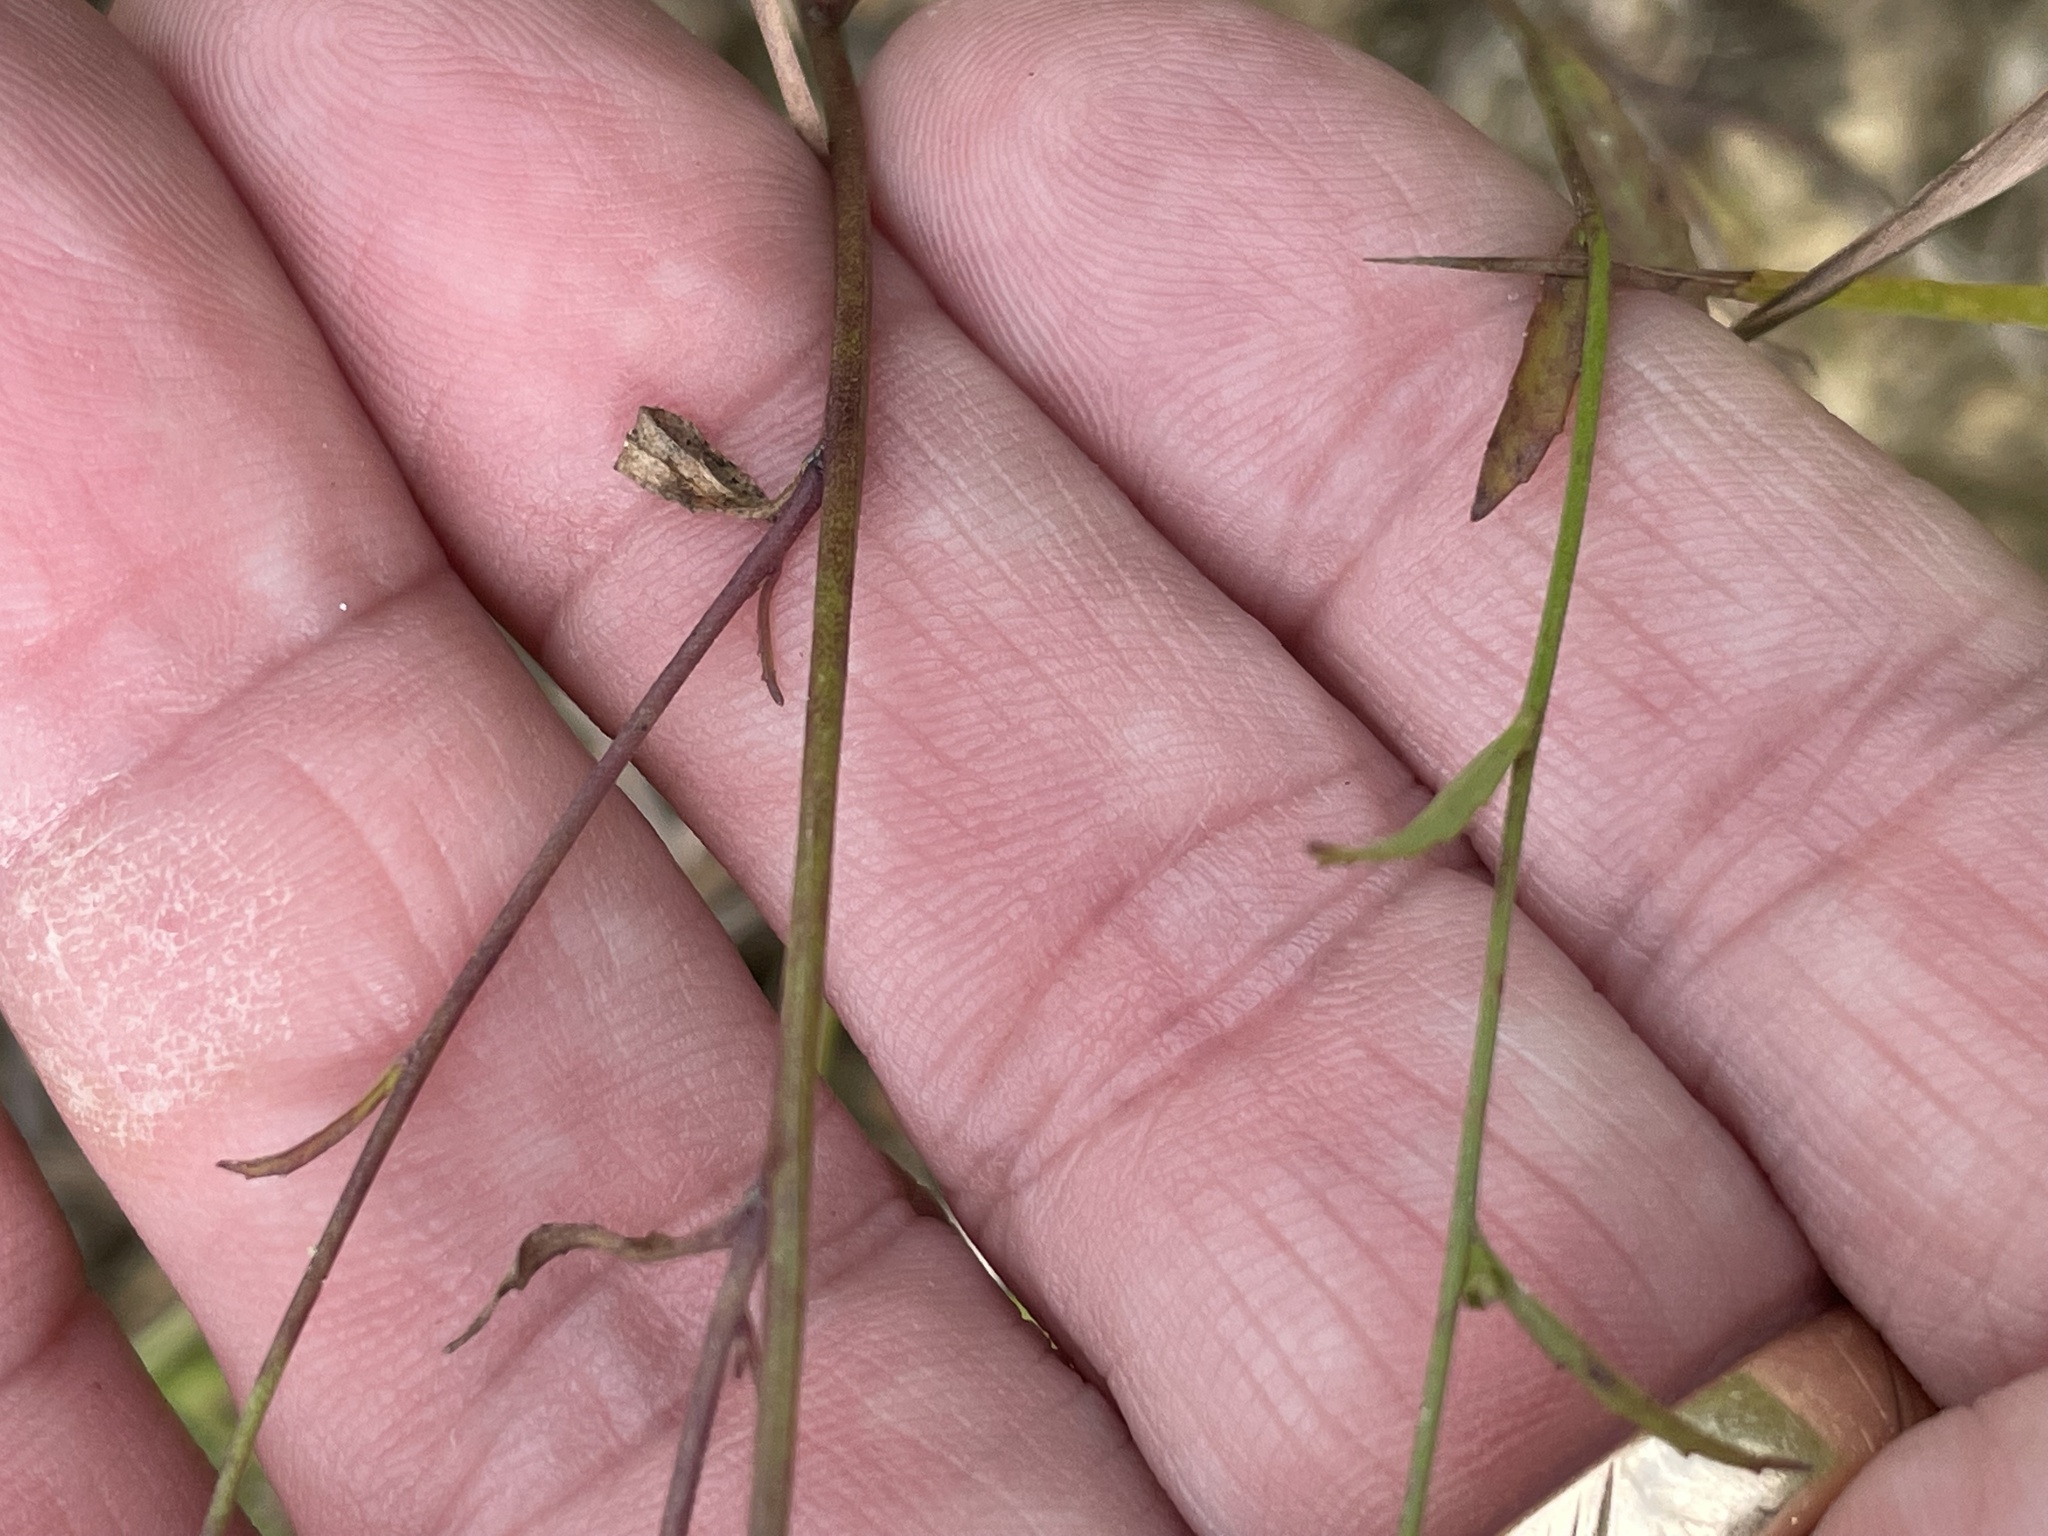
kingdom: Plantae
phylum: Tracheophyta
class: Magnoliopsida
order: Asterales
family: Campanulaceae
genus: Lobelia
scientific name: Lobelia nuttallii
